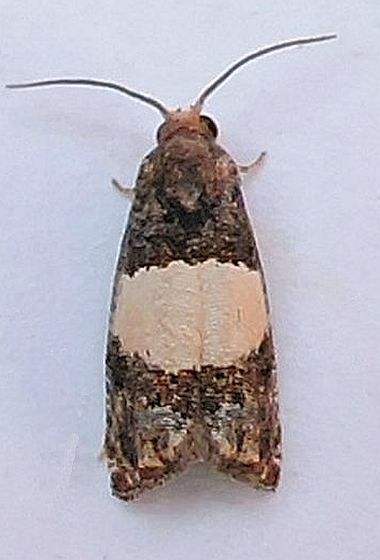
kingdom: Animalia
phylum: Arthropoda
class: Insecta
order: Lepidoptera
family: Tortricidae
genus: Epiblema
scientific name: Epiblema tripartitana
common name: Three-parted epiblema moth
